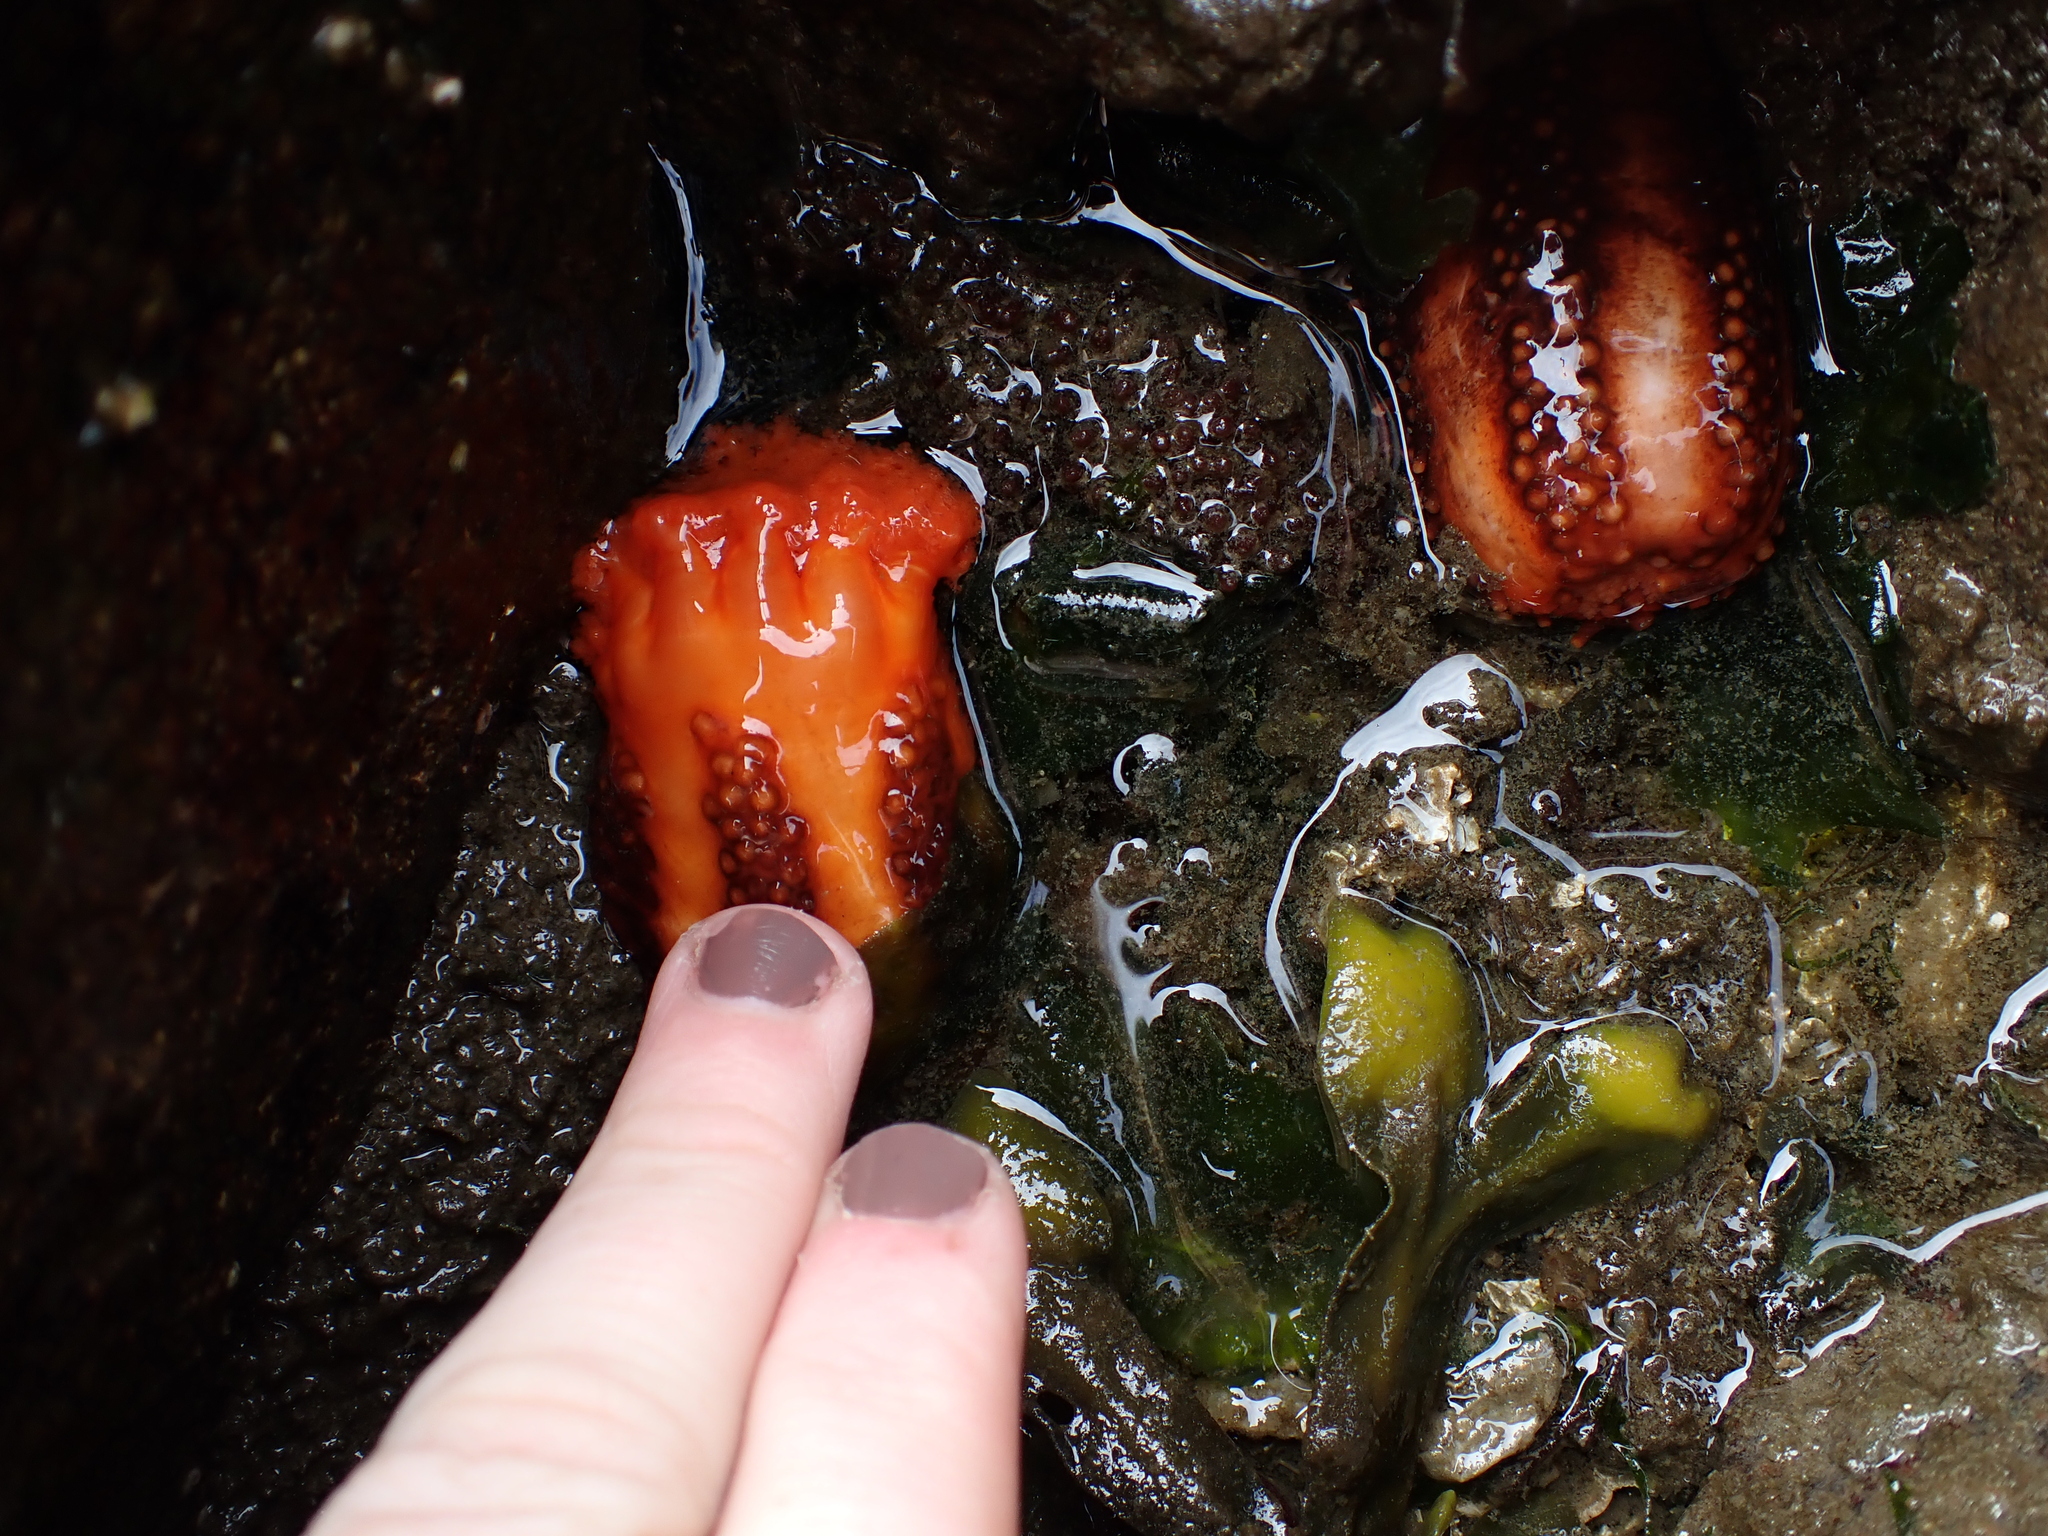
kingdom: Animalia
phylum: Echinodermata
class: Holothuroidea
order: Dendrochirotida
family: Cucumariidae
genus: Cucumaria
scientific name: Cucumaria miniata
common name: Orange sea cucumber
